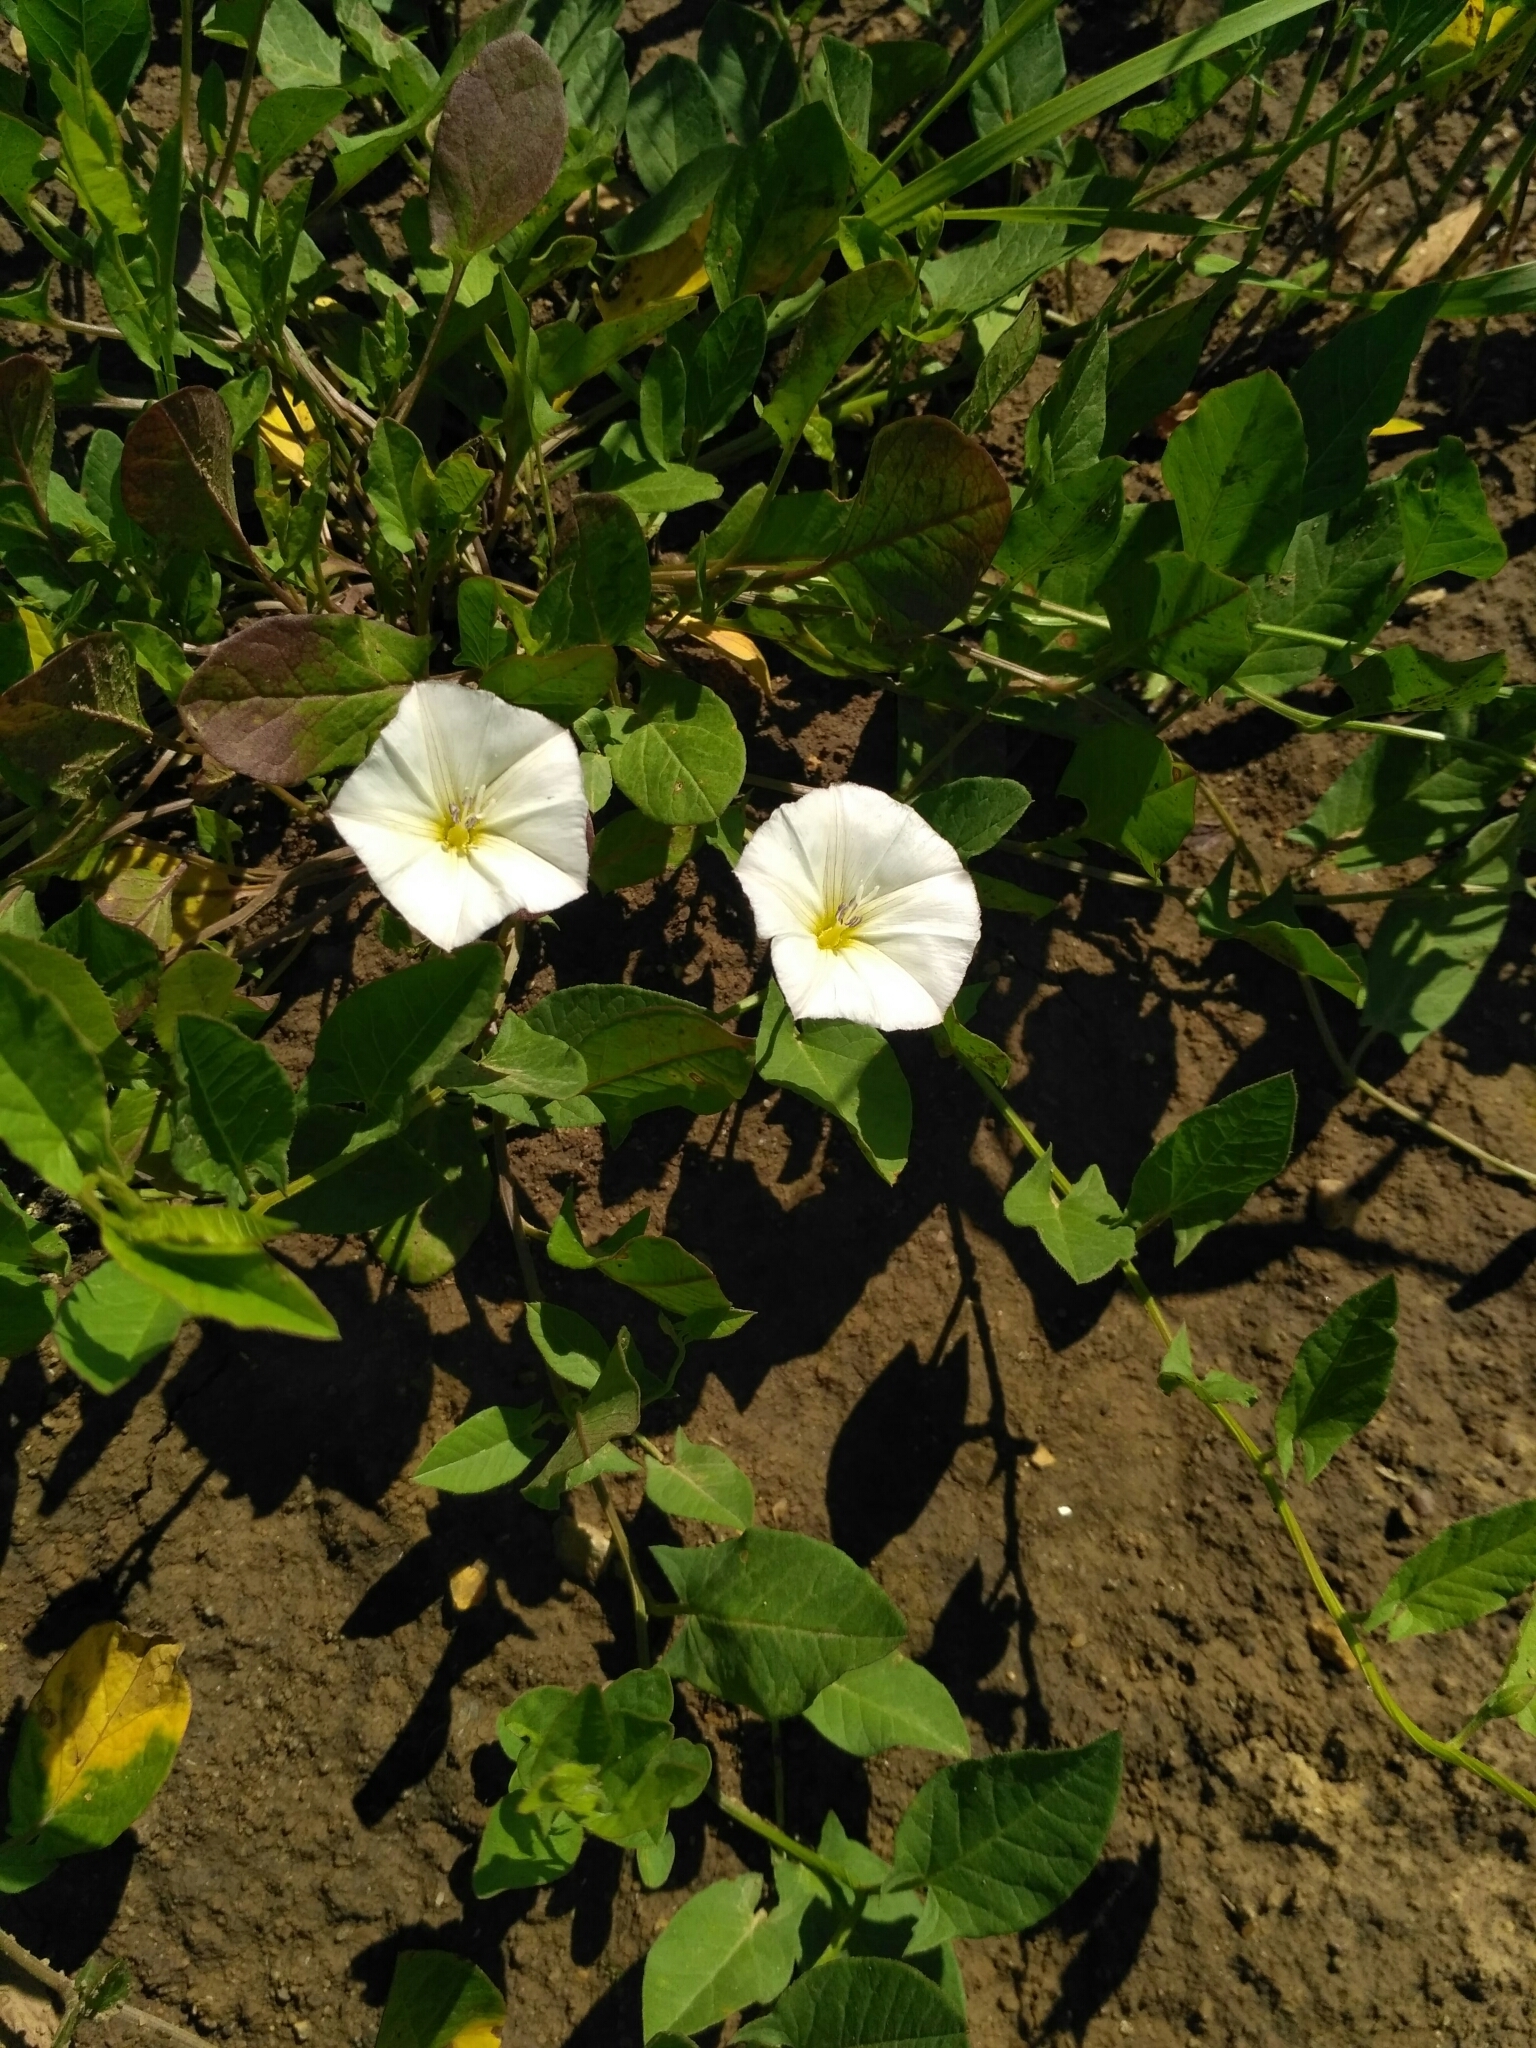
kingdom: Plantae
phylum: Tracheophyta
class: Magnoliopsida
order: Solanales
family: Convolvulaceae
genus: Convolvulus
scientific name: Convolvulus arvensis
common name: Field bindweed
